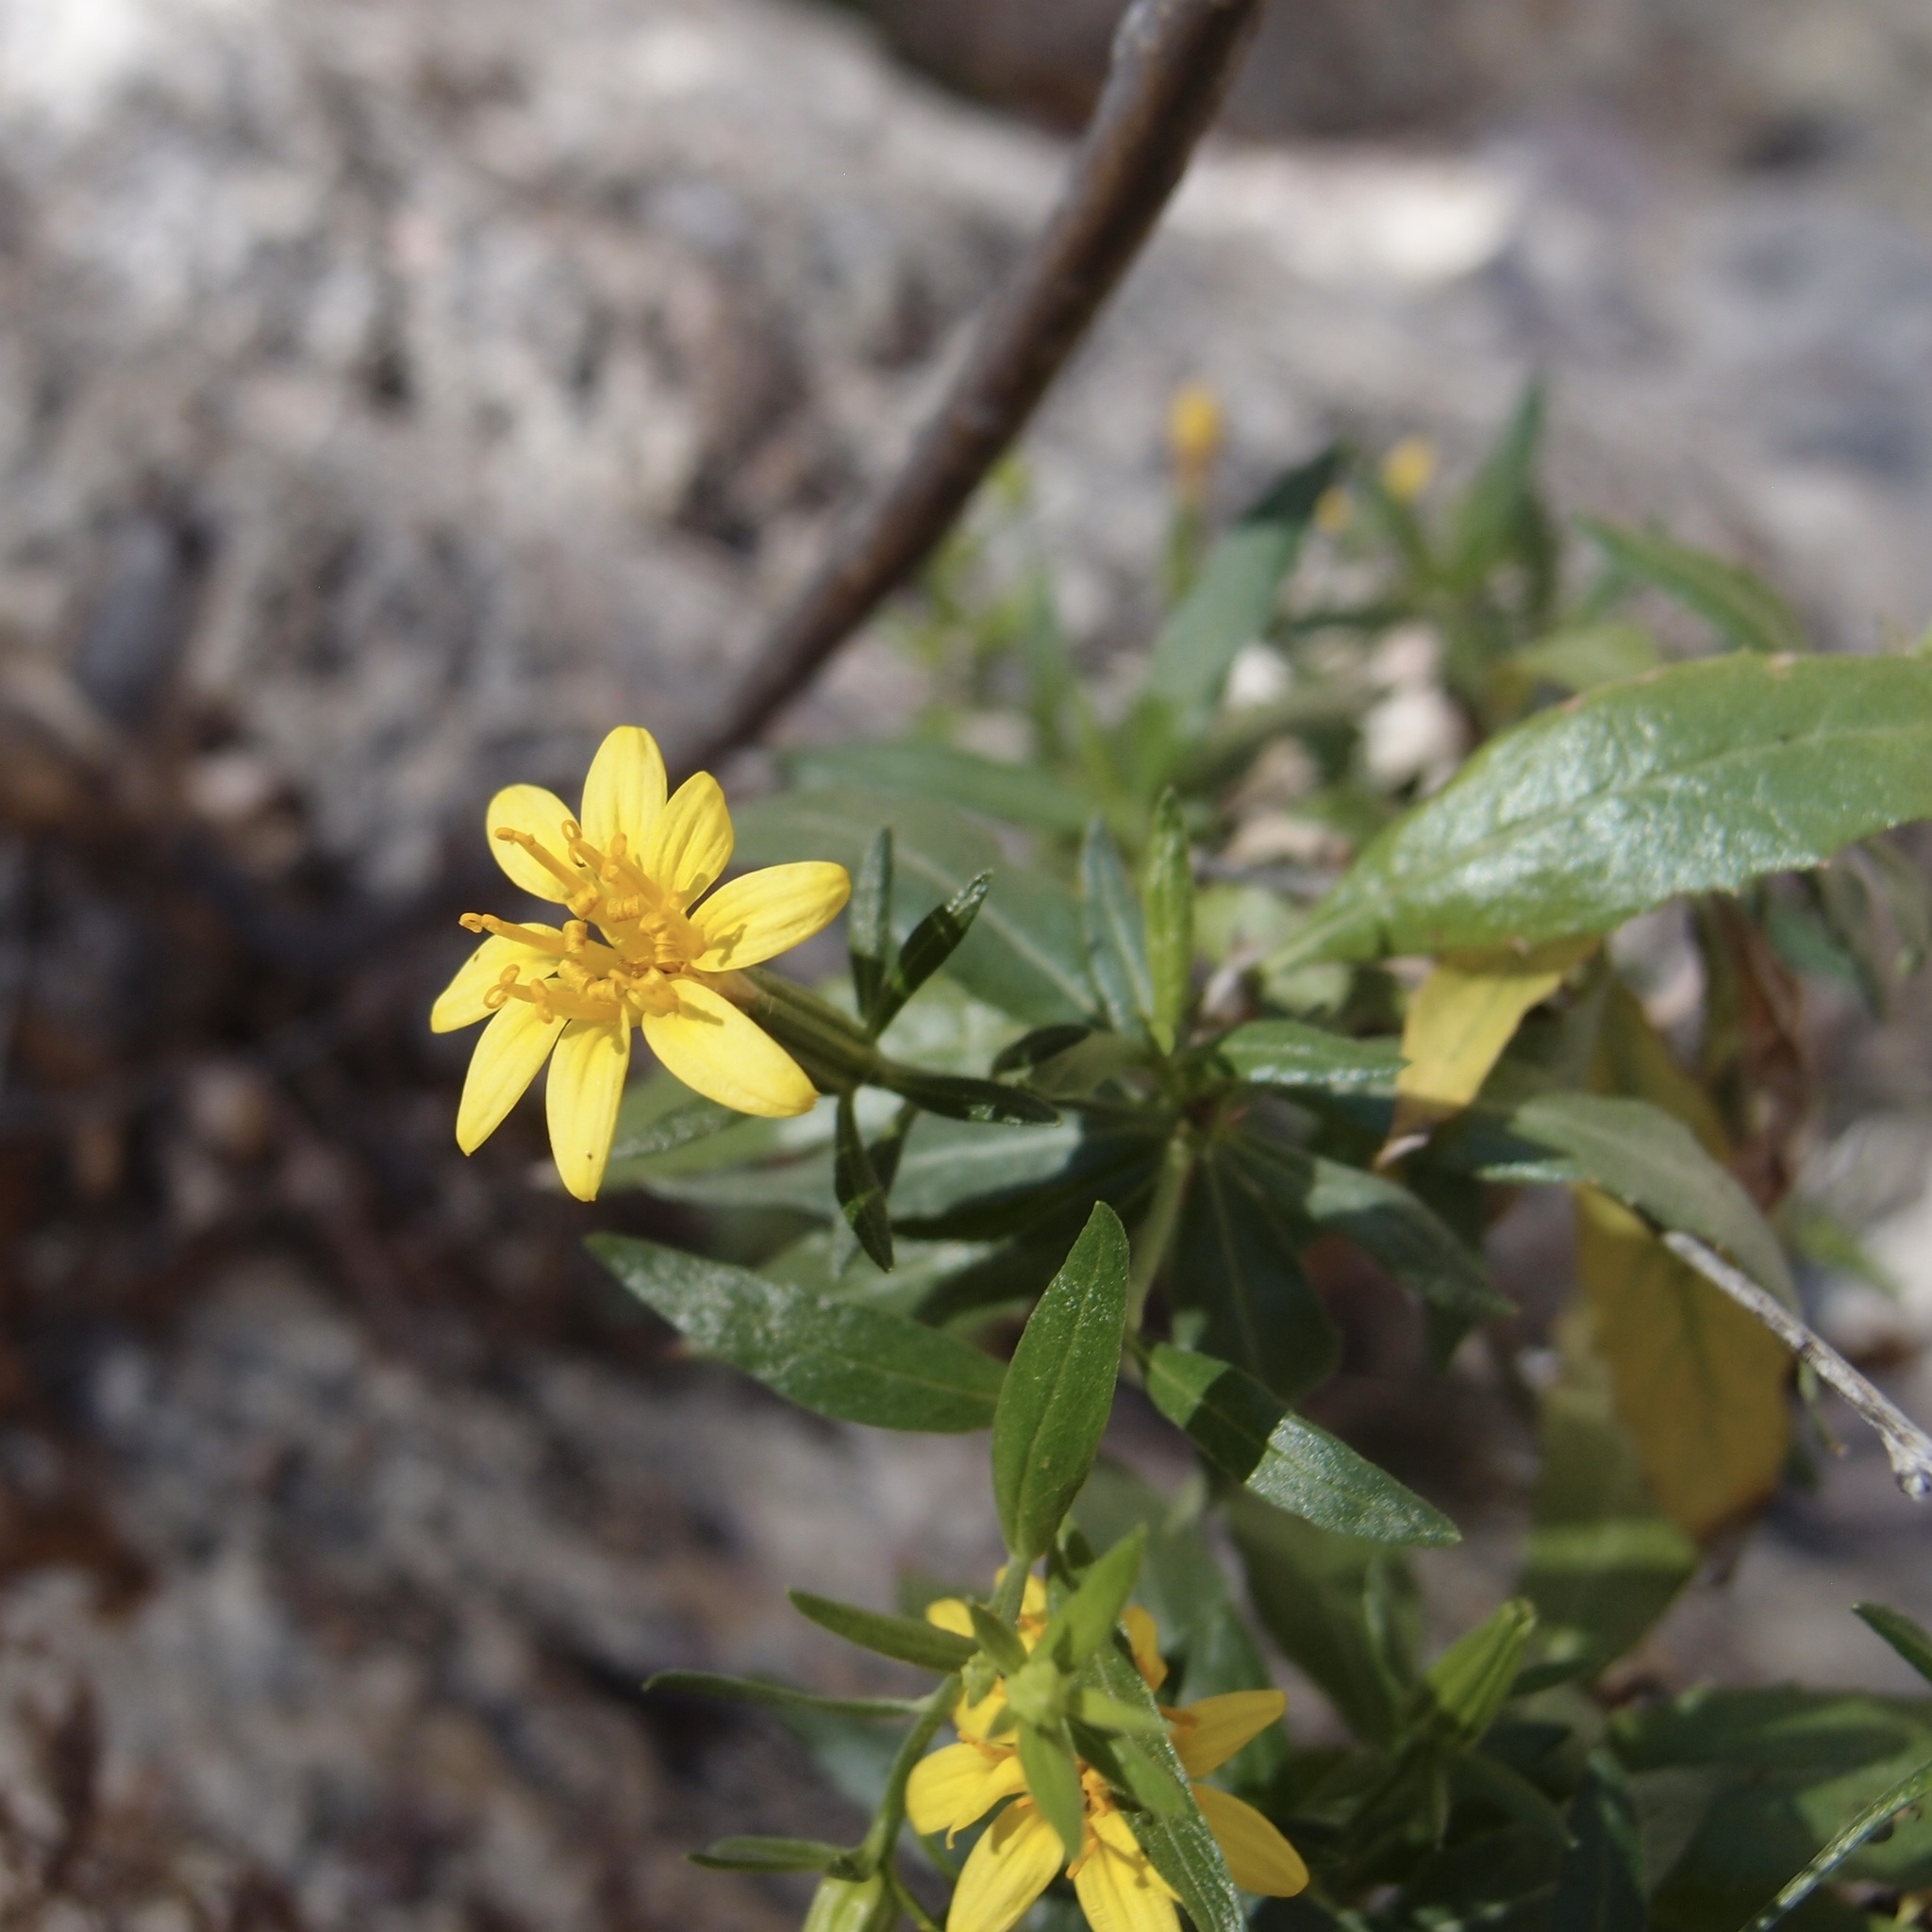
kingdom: Plantae
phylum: Tracheophyta
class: Magnoliopsida
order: Asterales
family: Asteraceae
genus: Trixis
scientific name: Trixis californica
